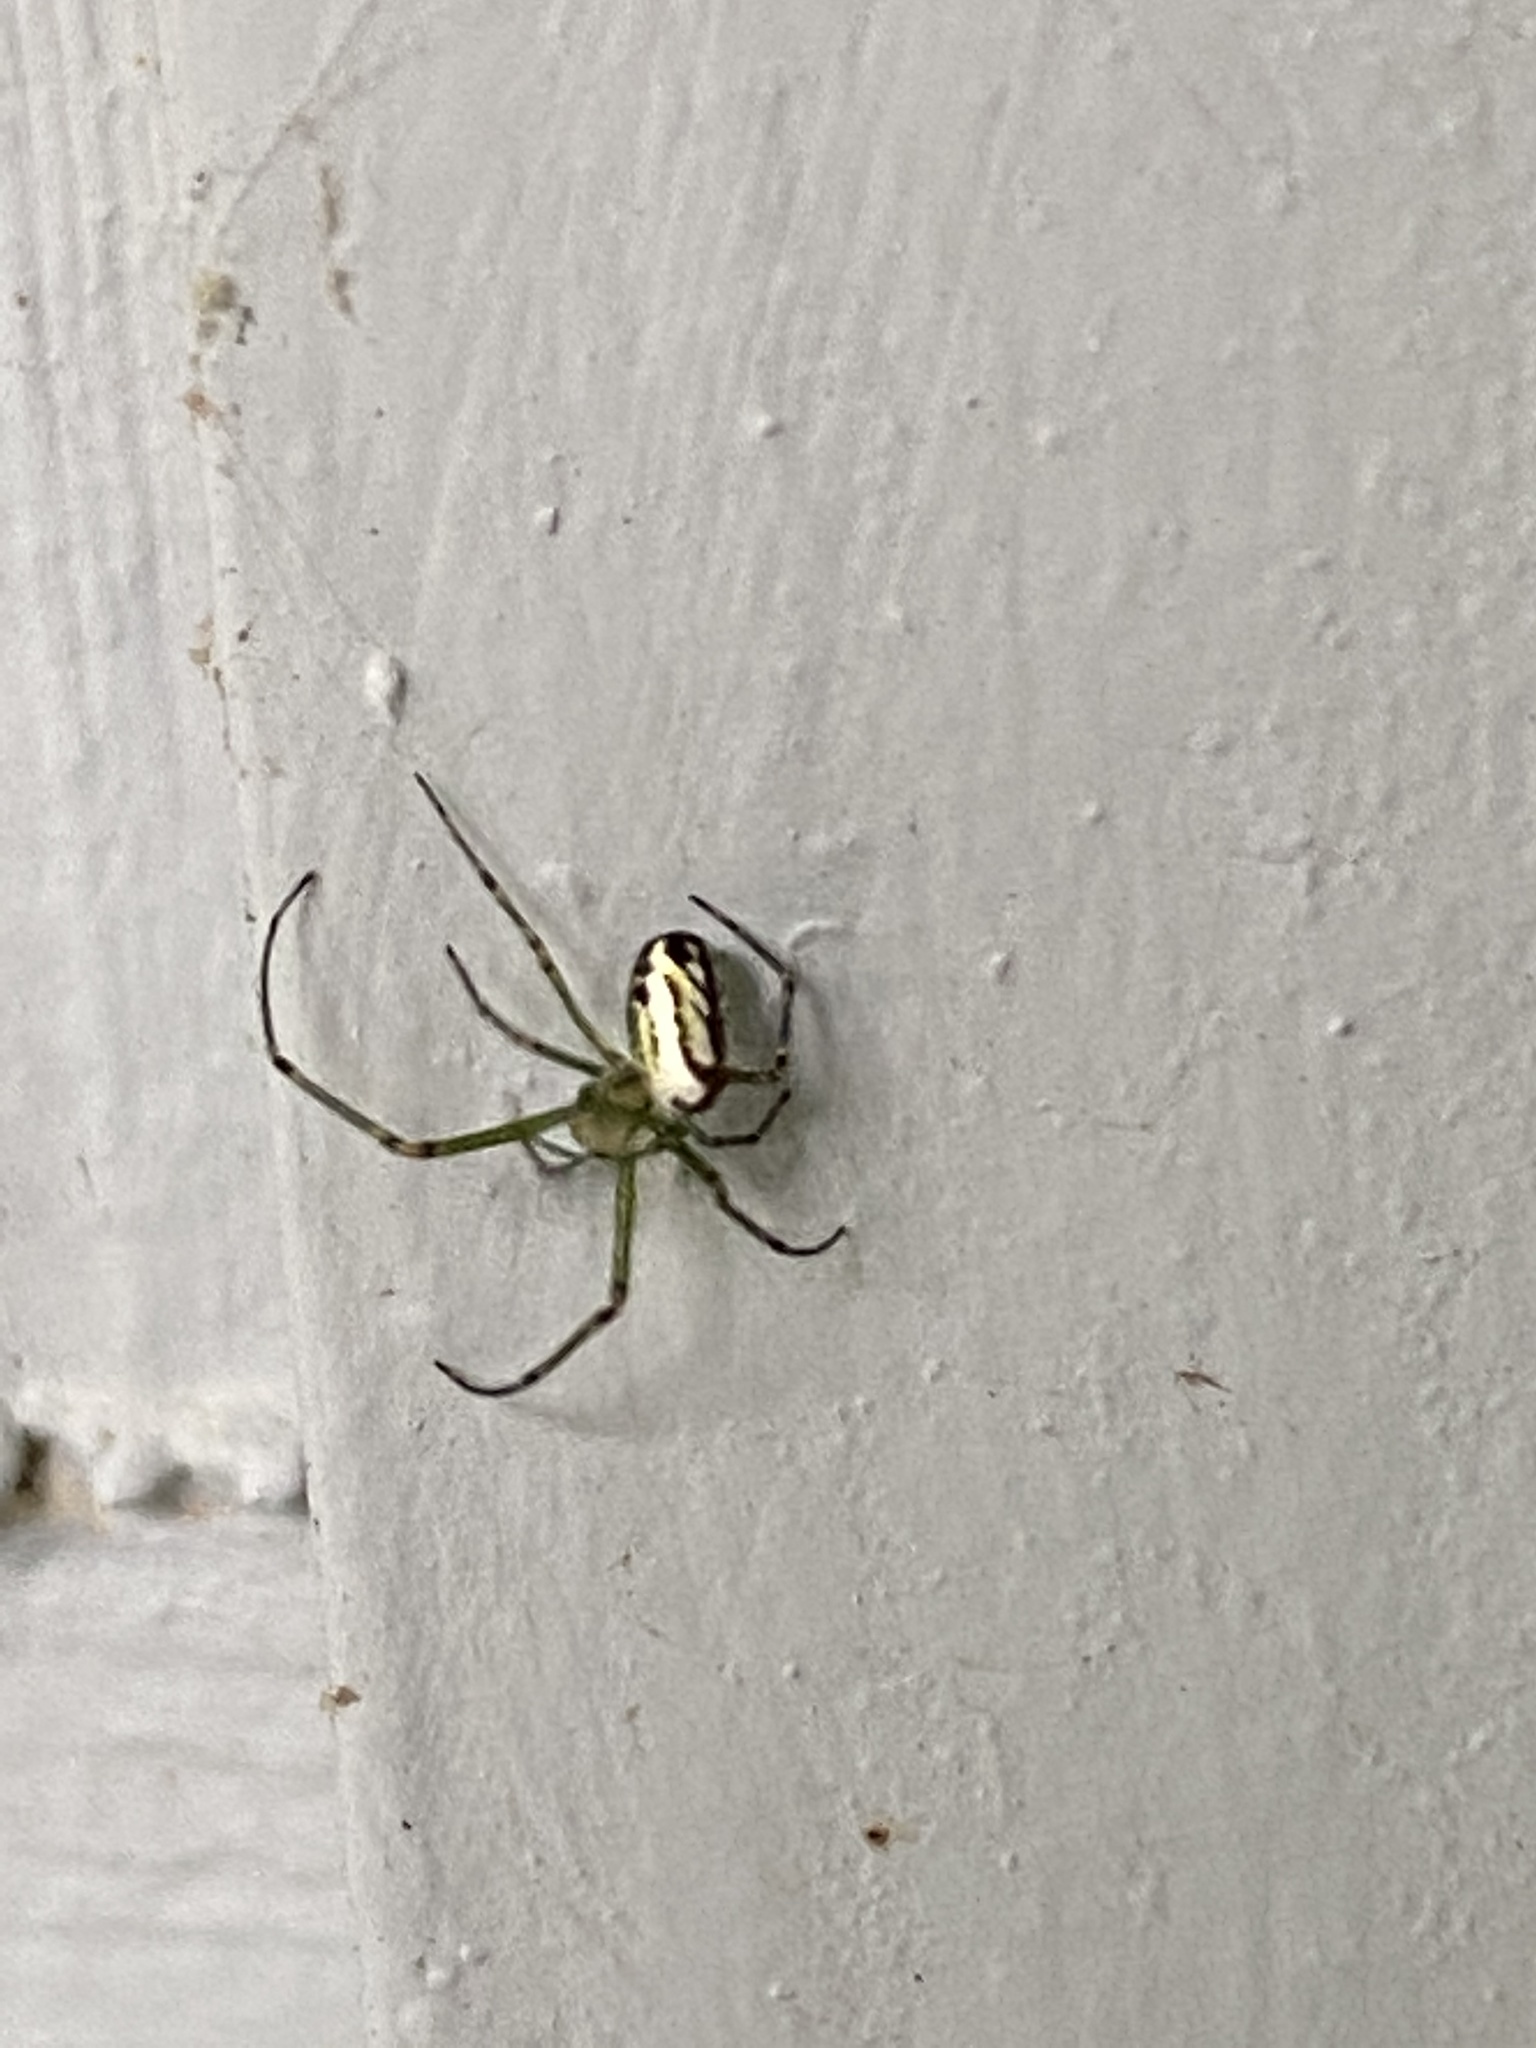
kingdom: Animalia
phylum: Arthropoda
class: Arachnida
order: Araneae
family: Tetragnathidae
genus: Leucauge
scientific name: Leucauge venusta
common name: Longjawed orb weavers
